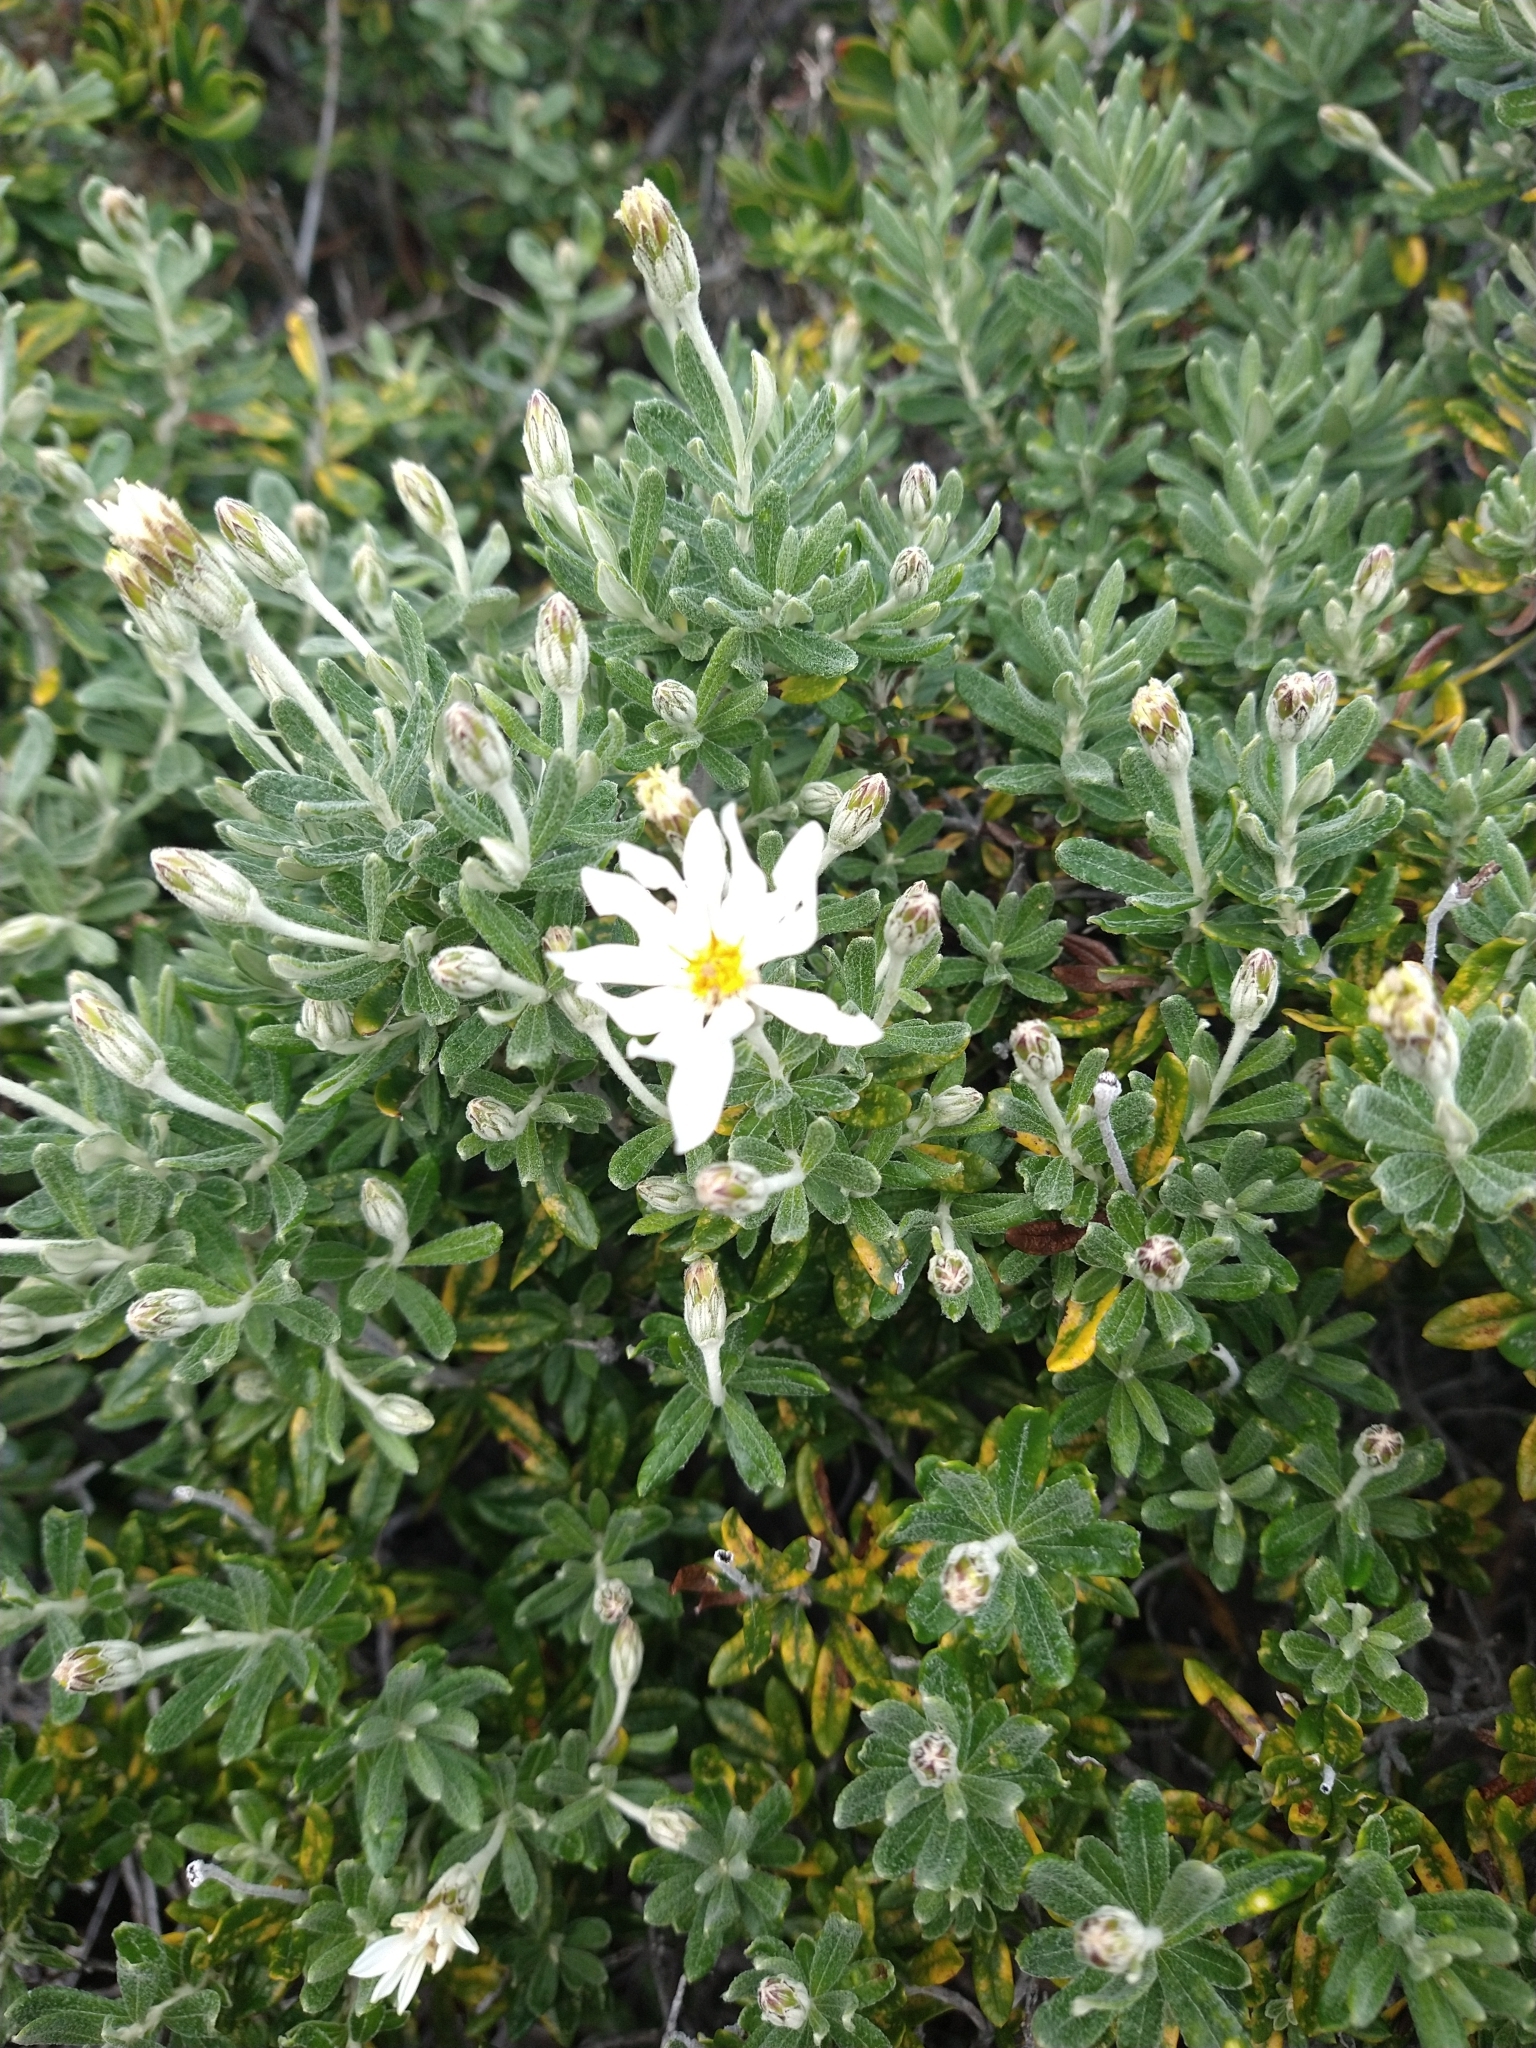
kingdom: Plantae
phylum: Tracheophyta
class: Magnoliopsida
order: Asterales
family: Asteraceae
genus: Chiliotrichum
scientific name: Chiliotrichum diffusum
